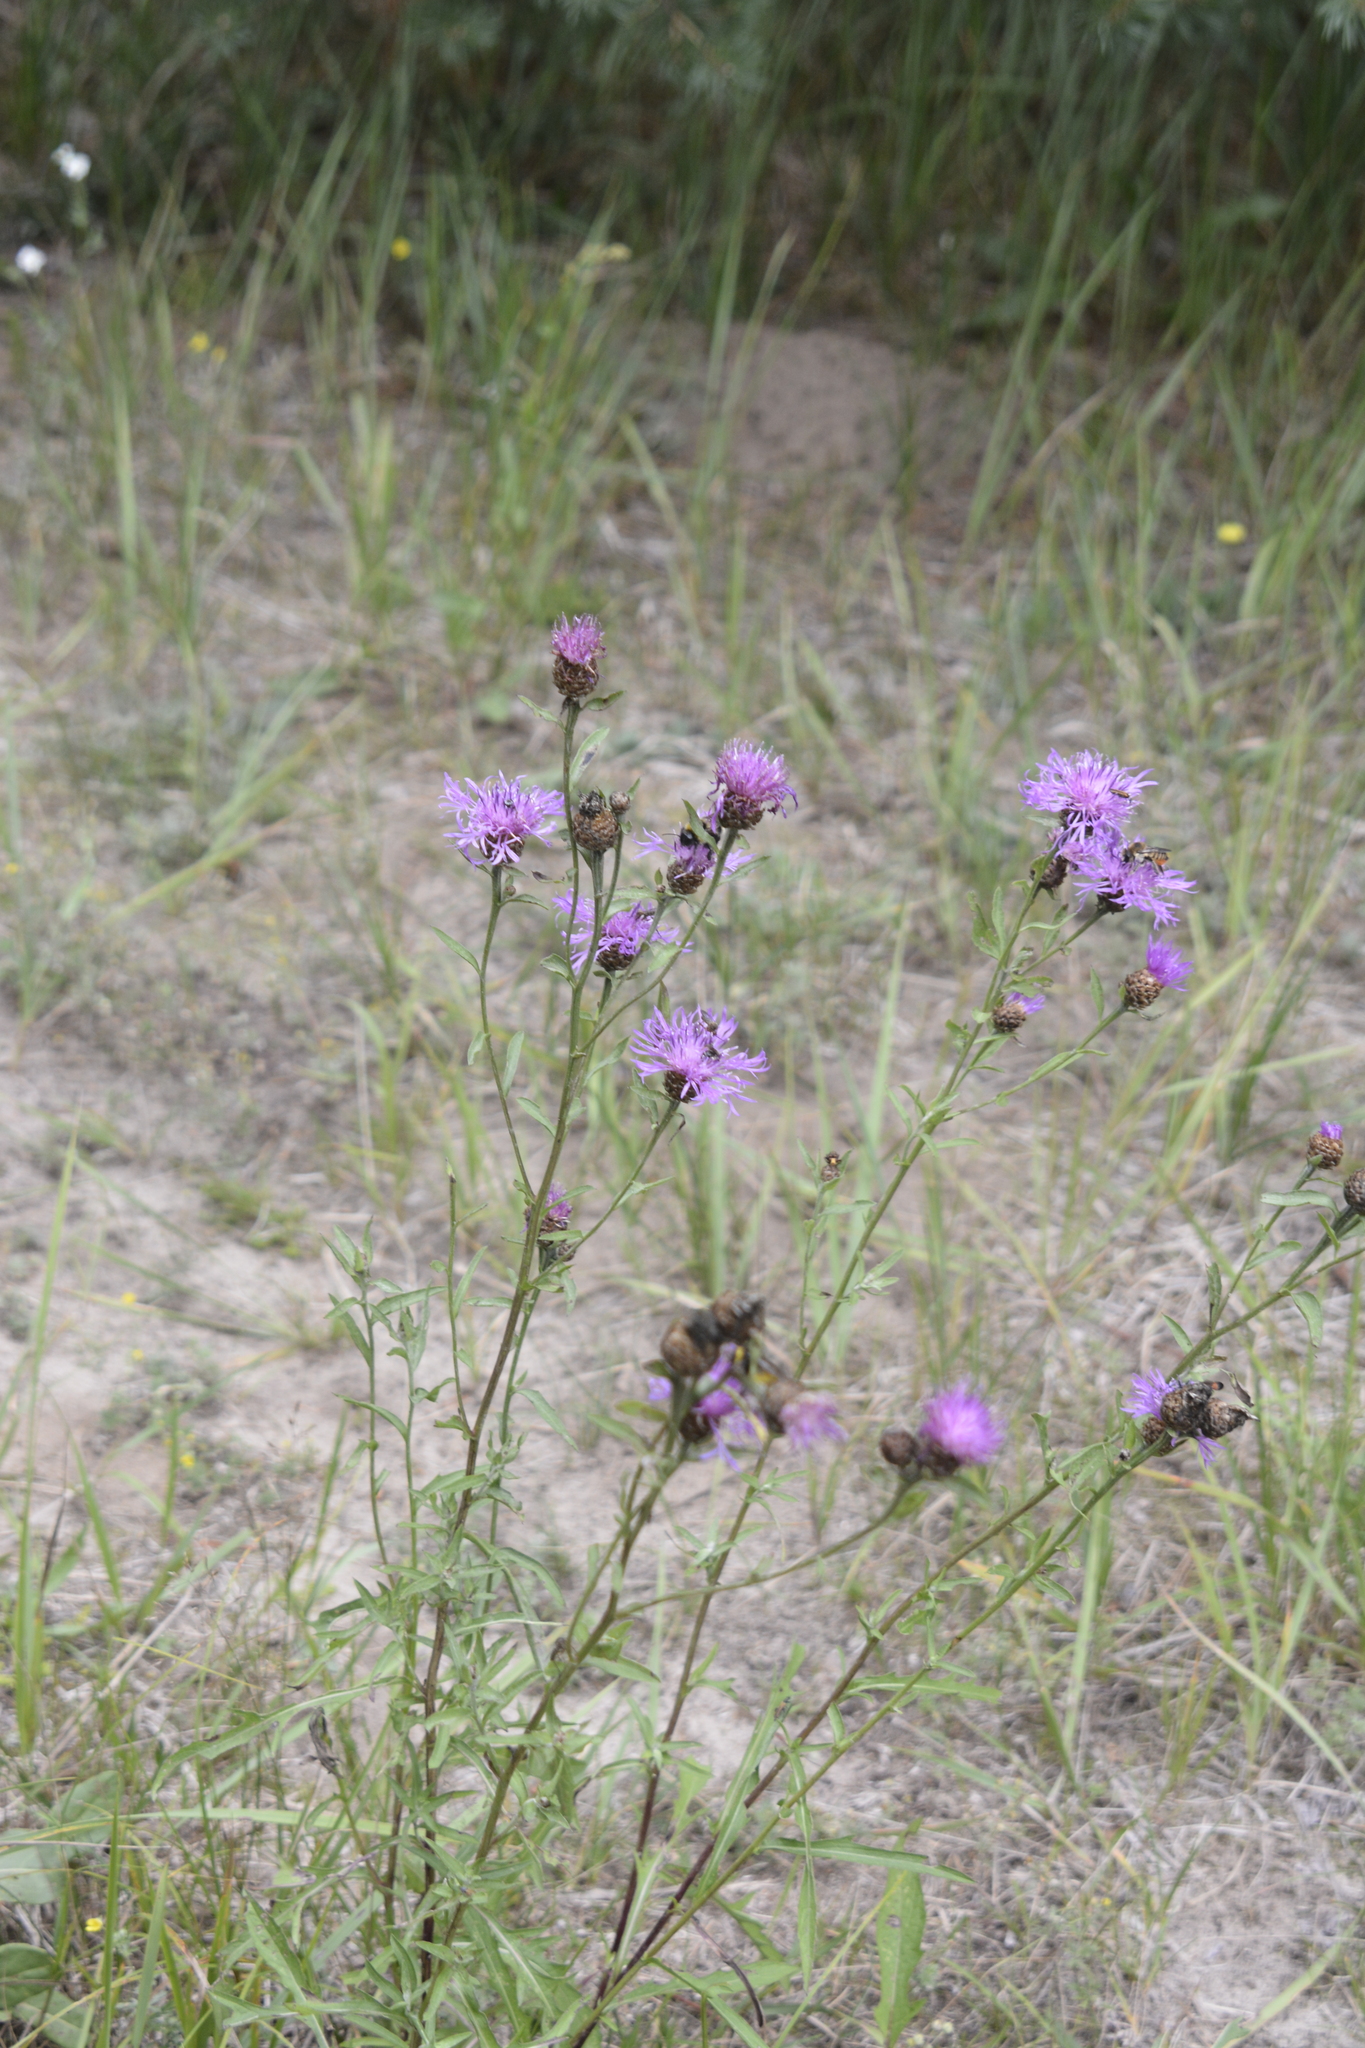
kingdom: Plantae
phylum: Tracheophyta
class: Magnoliopsida
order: Asterales
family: Asteraceae
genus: Centaurea
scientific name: Centaurea jacea
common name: Brown knapweed
